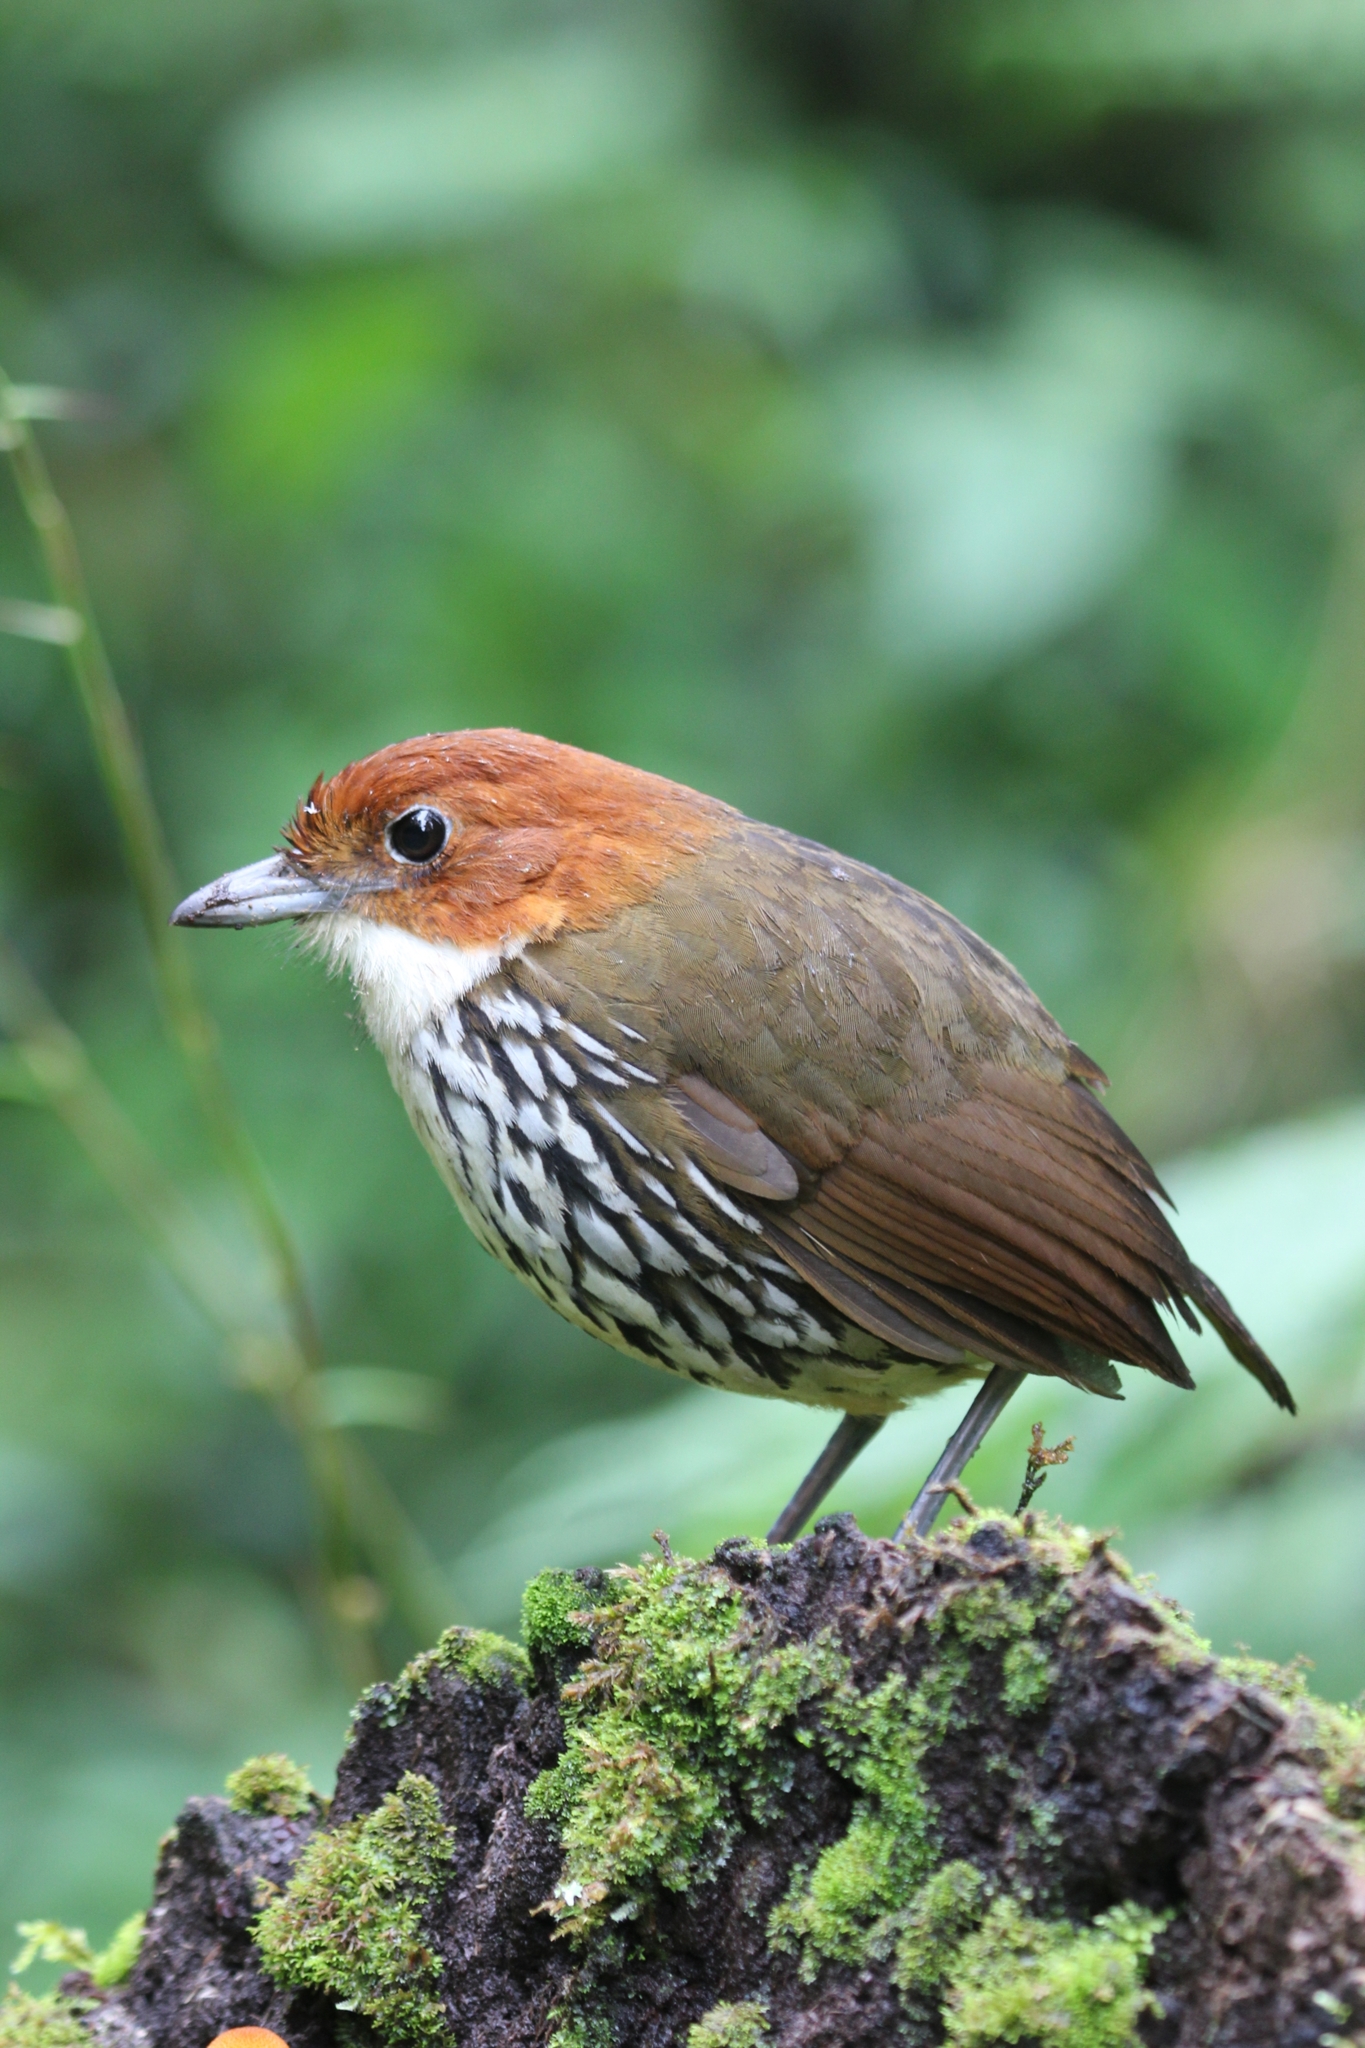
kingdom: Animalia
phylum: Chordata
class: Aves
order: Passeriformes
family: Grallariidae
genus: Grallaria
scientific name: Grallaria ruficapilla
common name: Chestnut-crowned antpitta
